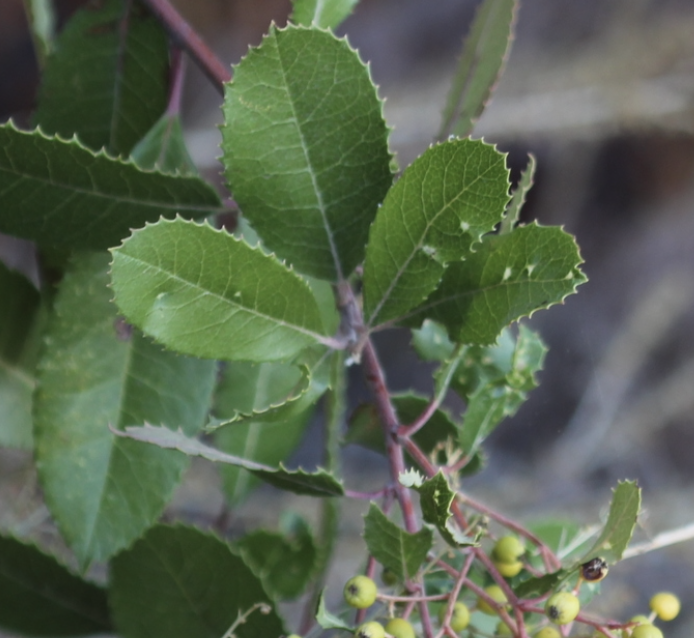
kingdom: Animalia
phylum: Arthropoda
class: Insecta
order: Thysanoptera
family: Phlaeothripidae
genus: Liothrips
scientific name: Liothrips ilex
